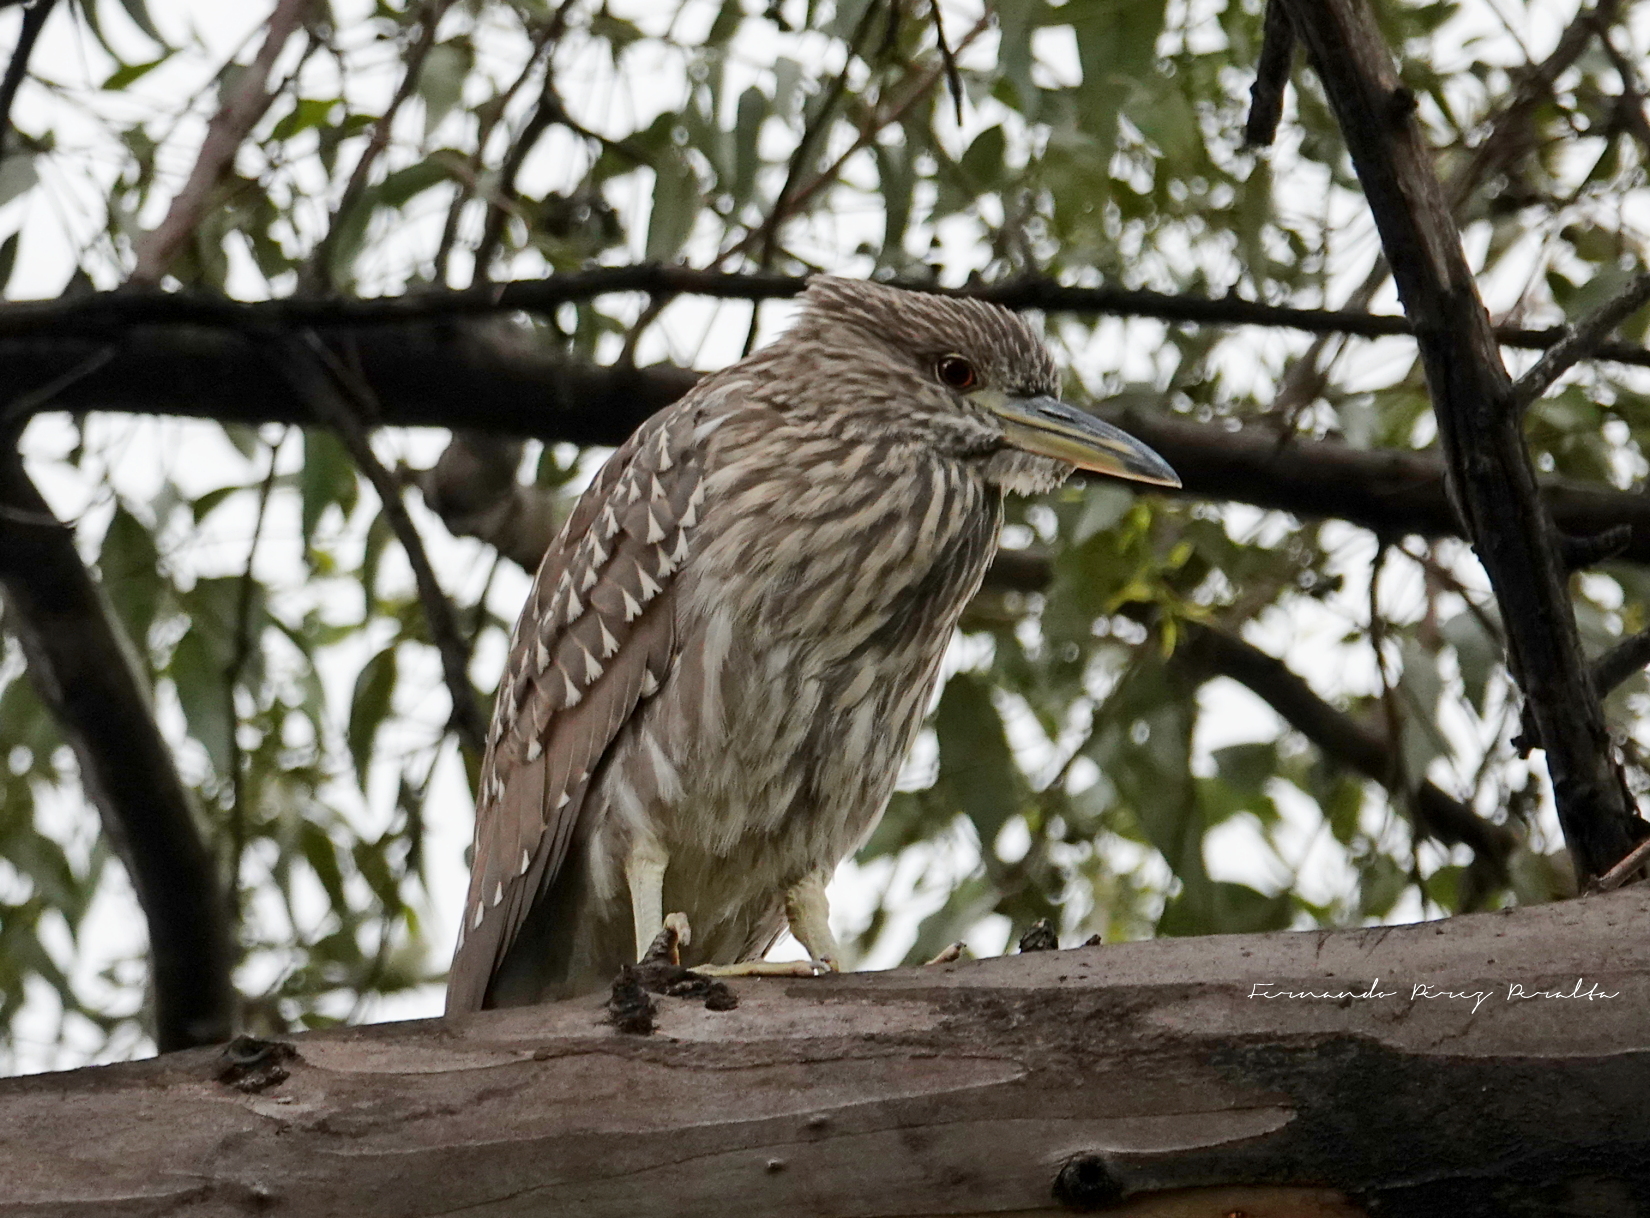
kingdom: Animalia
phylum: Chordata
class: Aves
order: Pelecaniformes
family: Ardeidae
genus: Nycticorax
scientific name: Nycticorax nycticorax
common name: Black-crowned night heron
